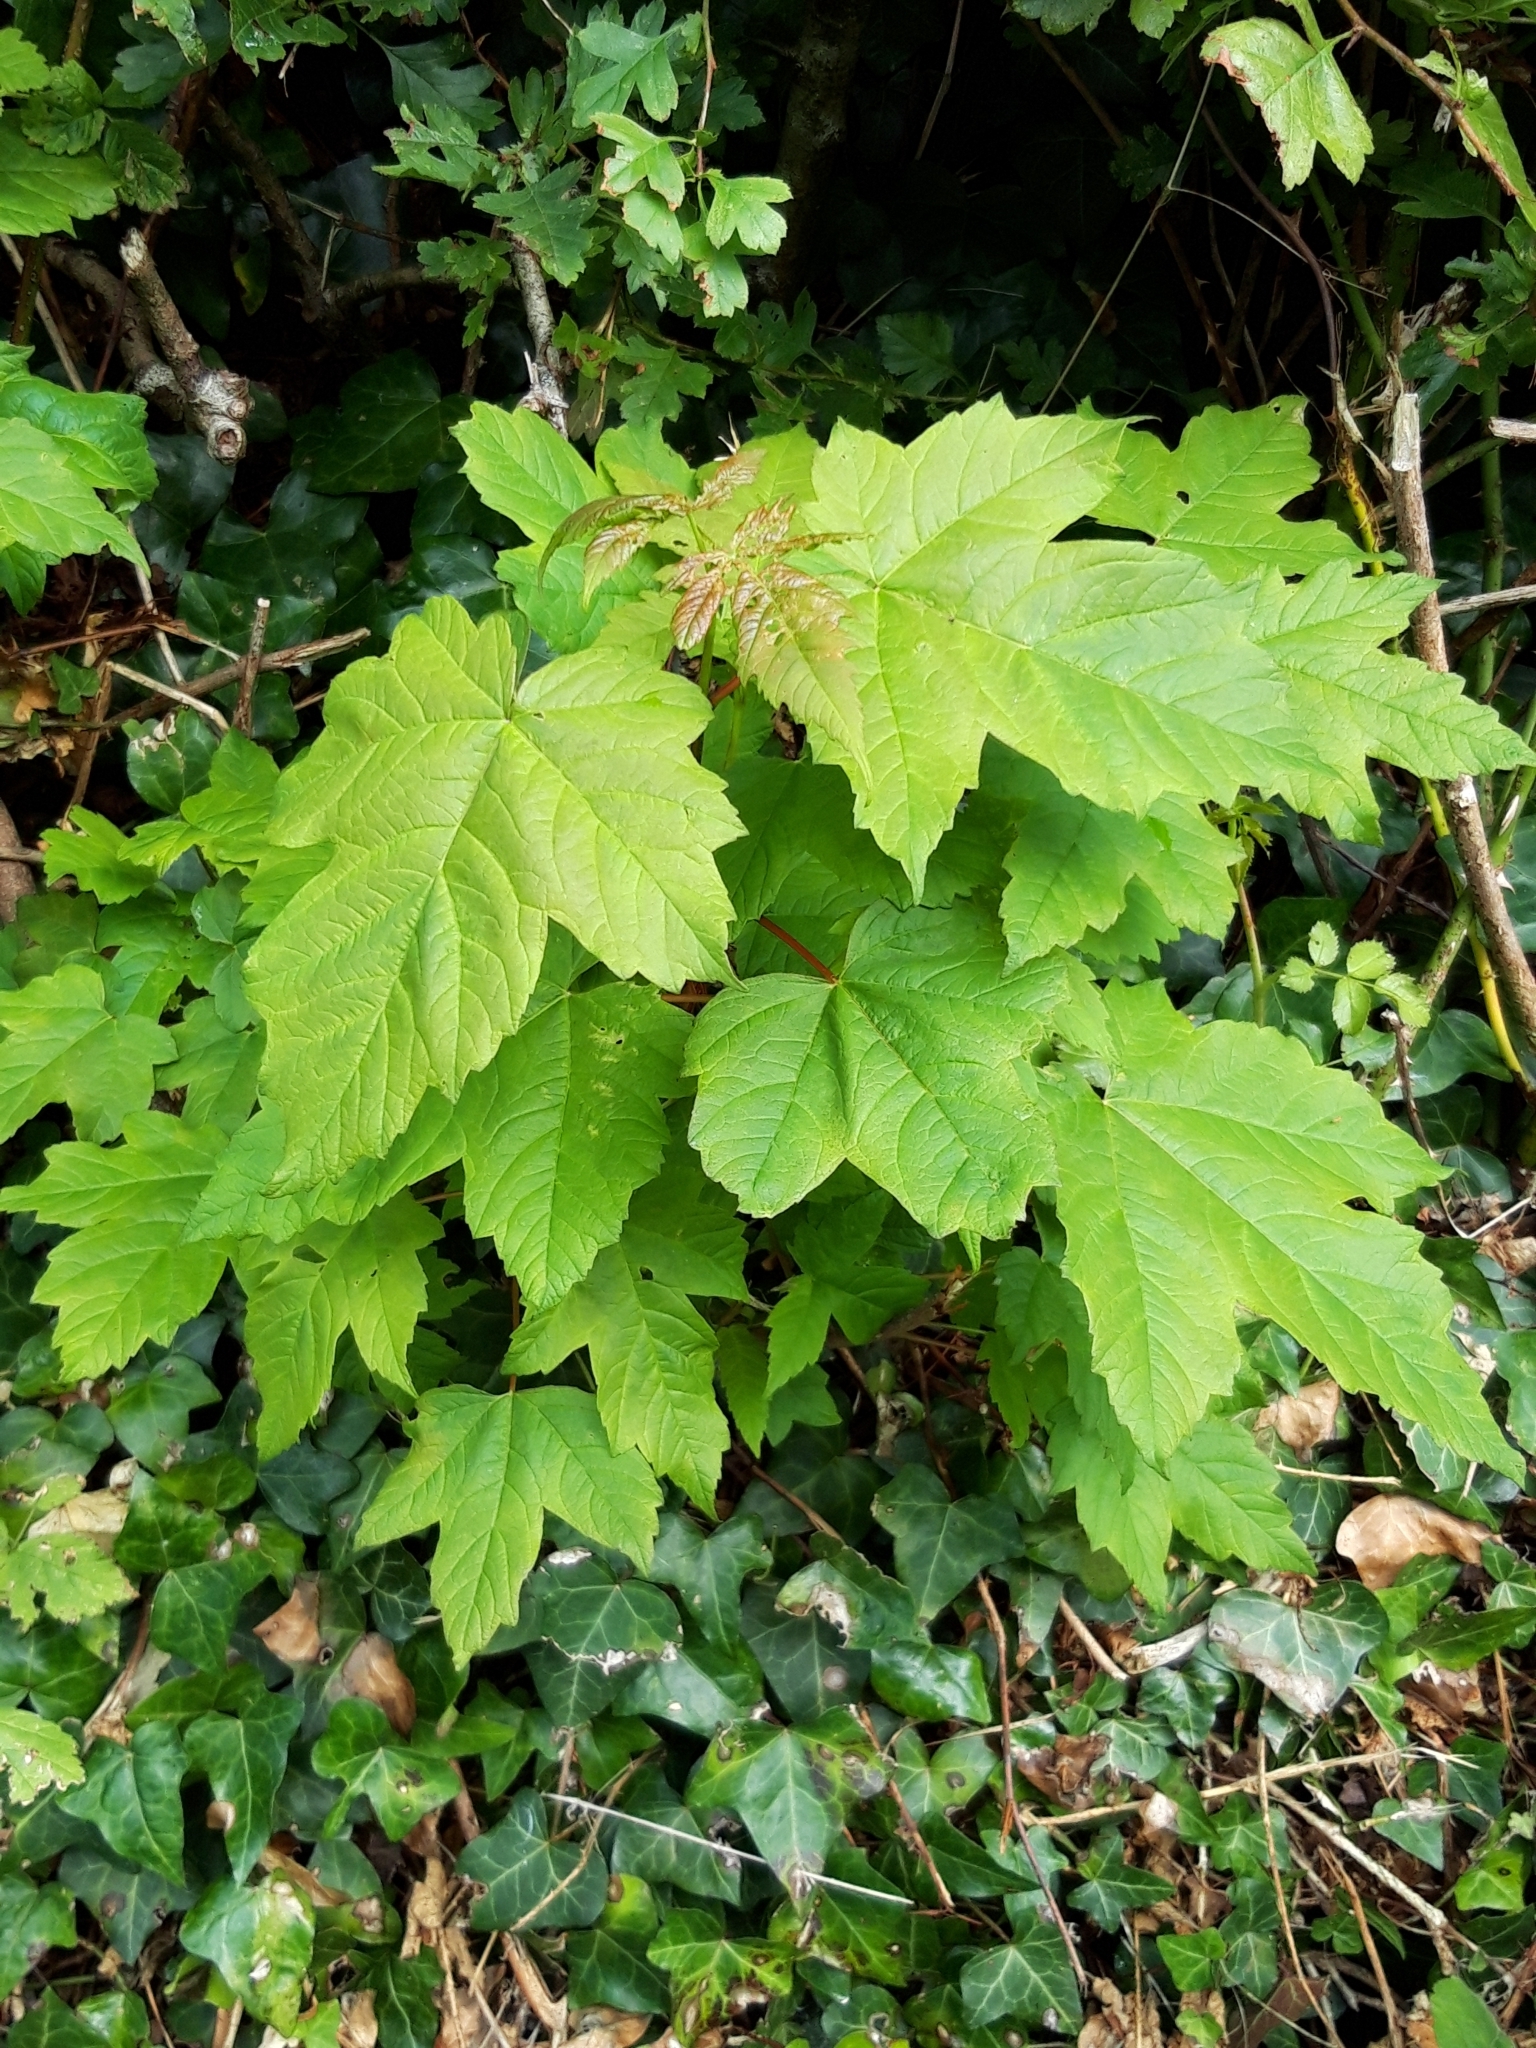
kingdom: Plantae
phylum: Tracheophyta
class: Magnoliopsida
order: Sapindales
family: Sapindaceae
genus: Acer
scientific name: Acer pseudoplatanus
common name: Sycamore
